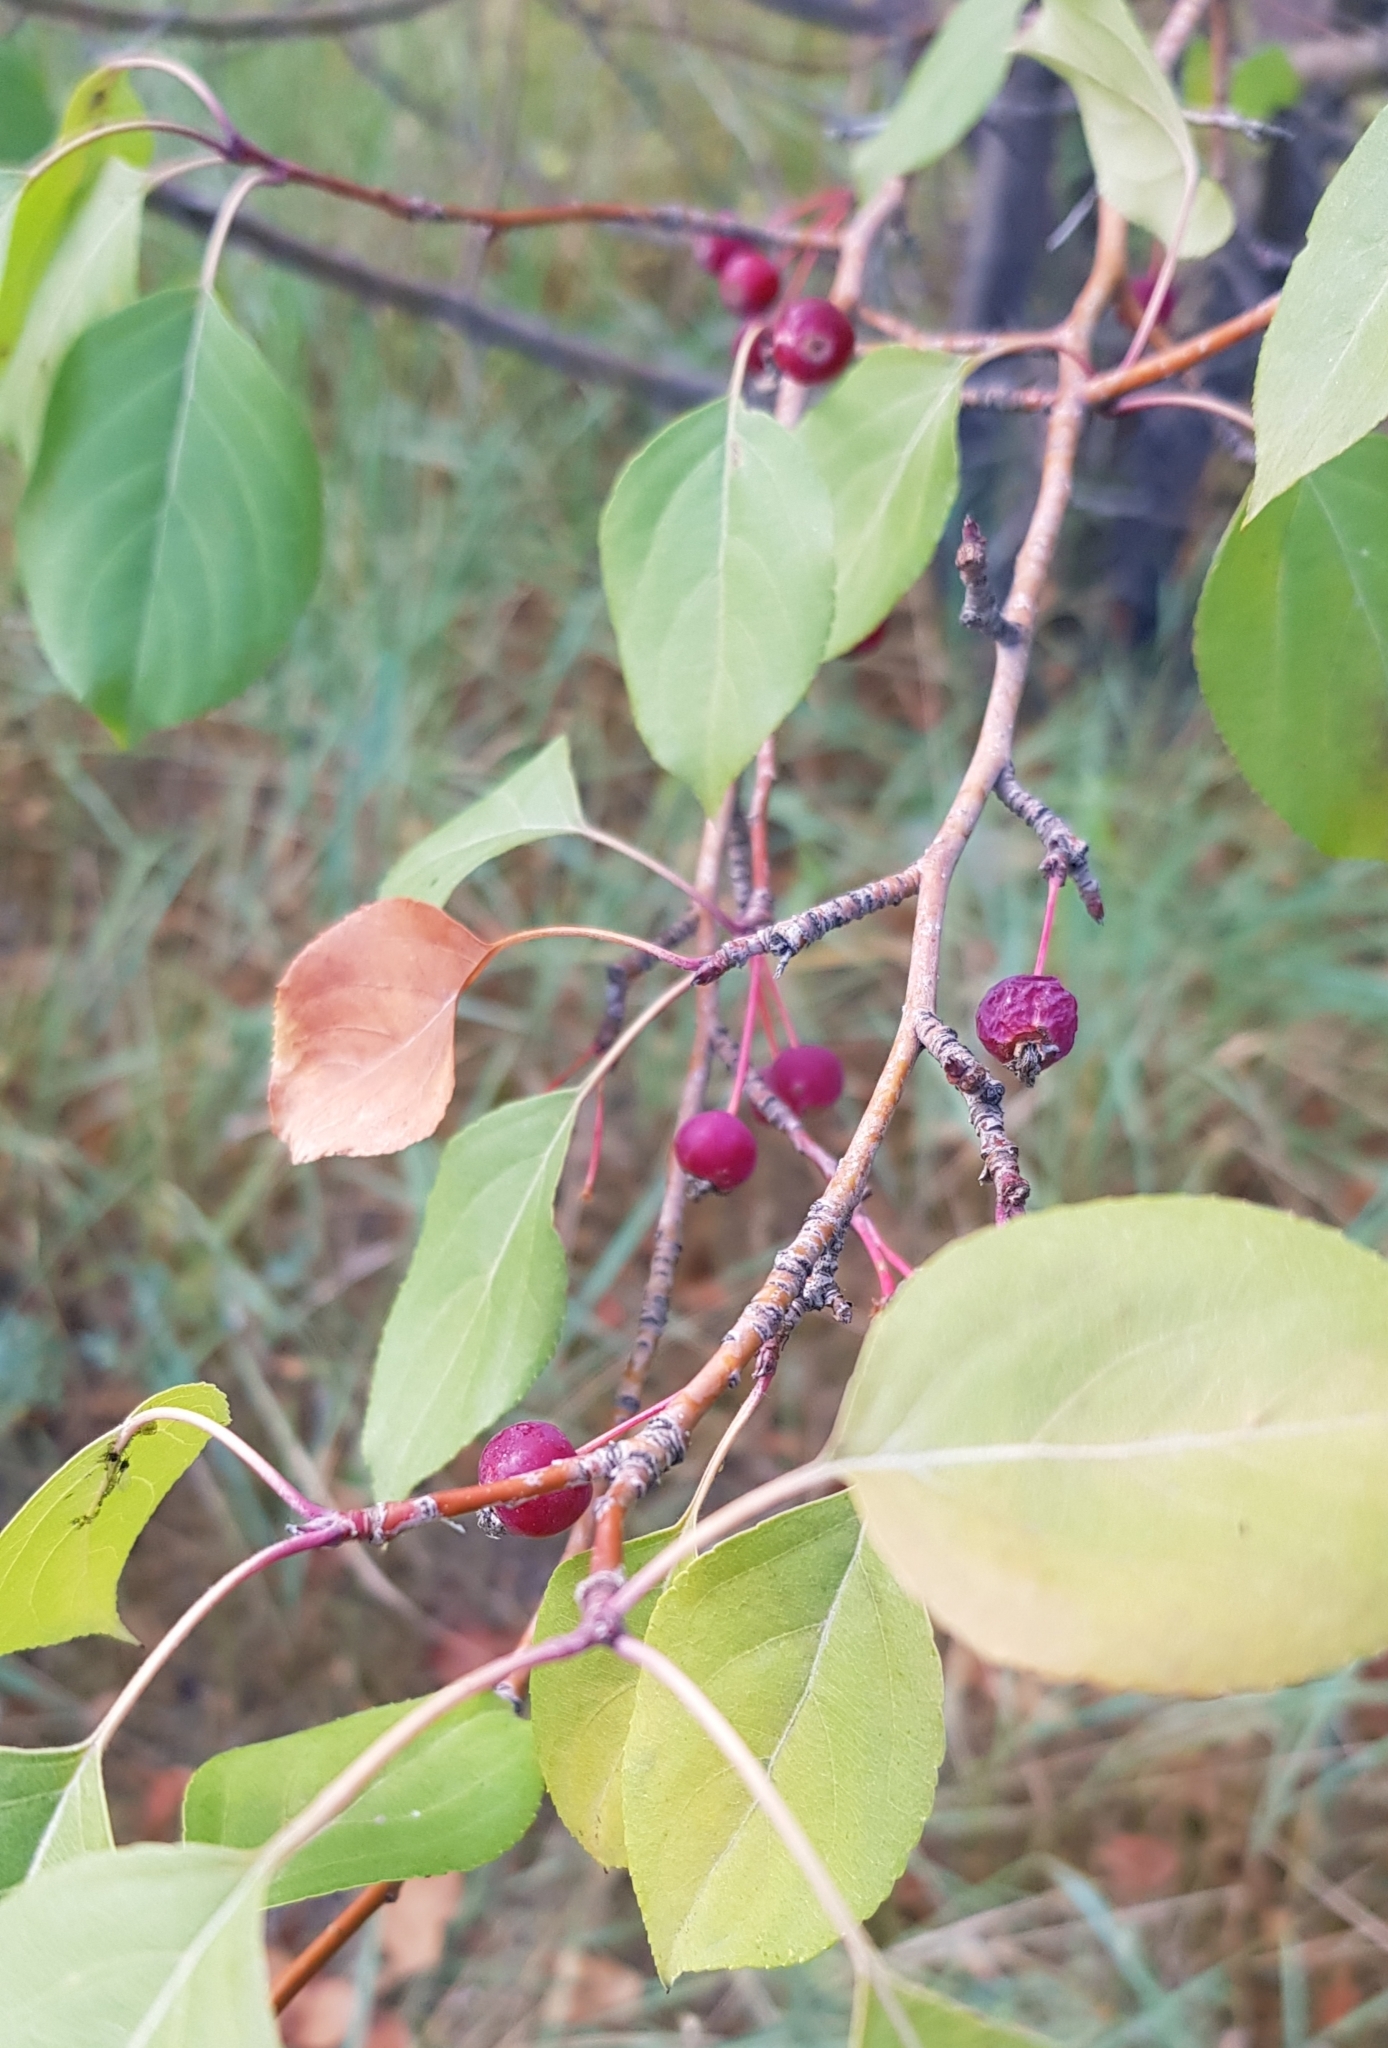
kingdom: Plantae
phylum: Tracheophyta
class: Magnoliopsida
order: Rosales
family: Rosaceae
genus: Malus
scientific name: Malus baccata
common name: Siberian crab
